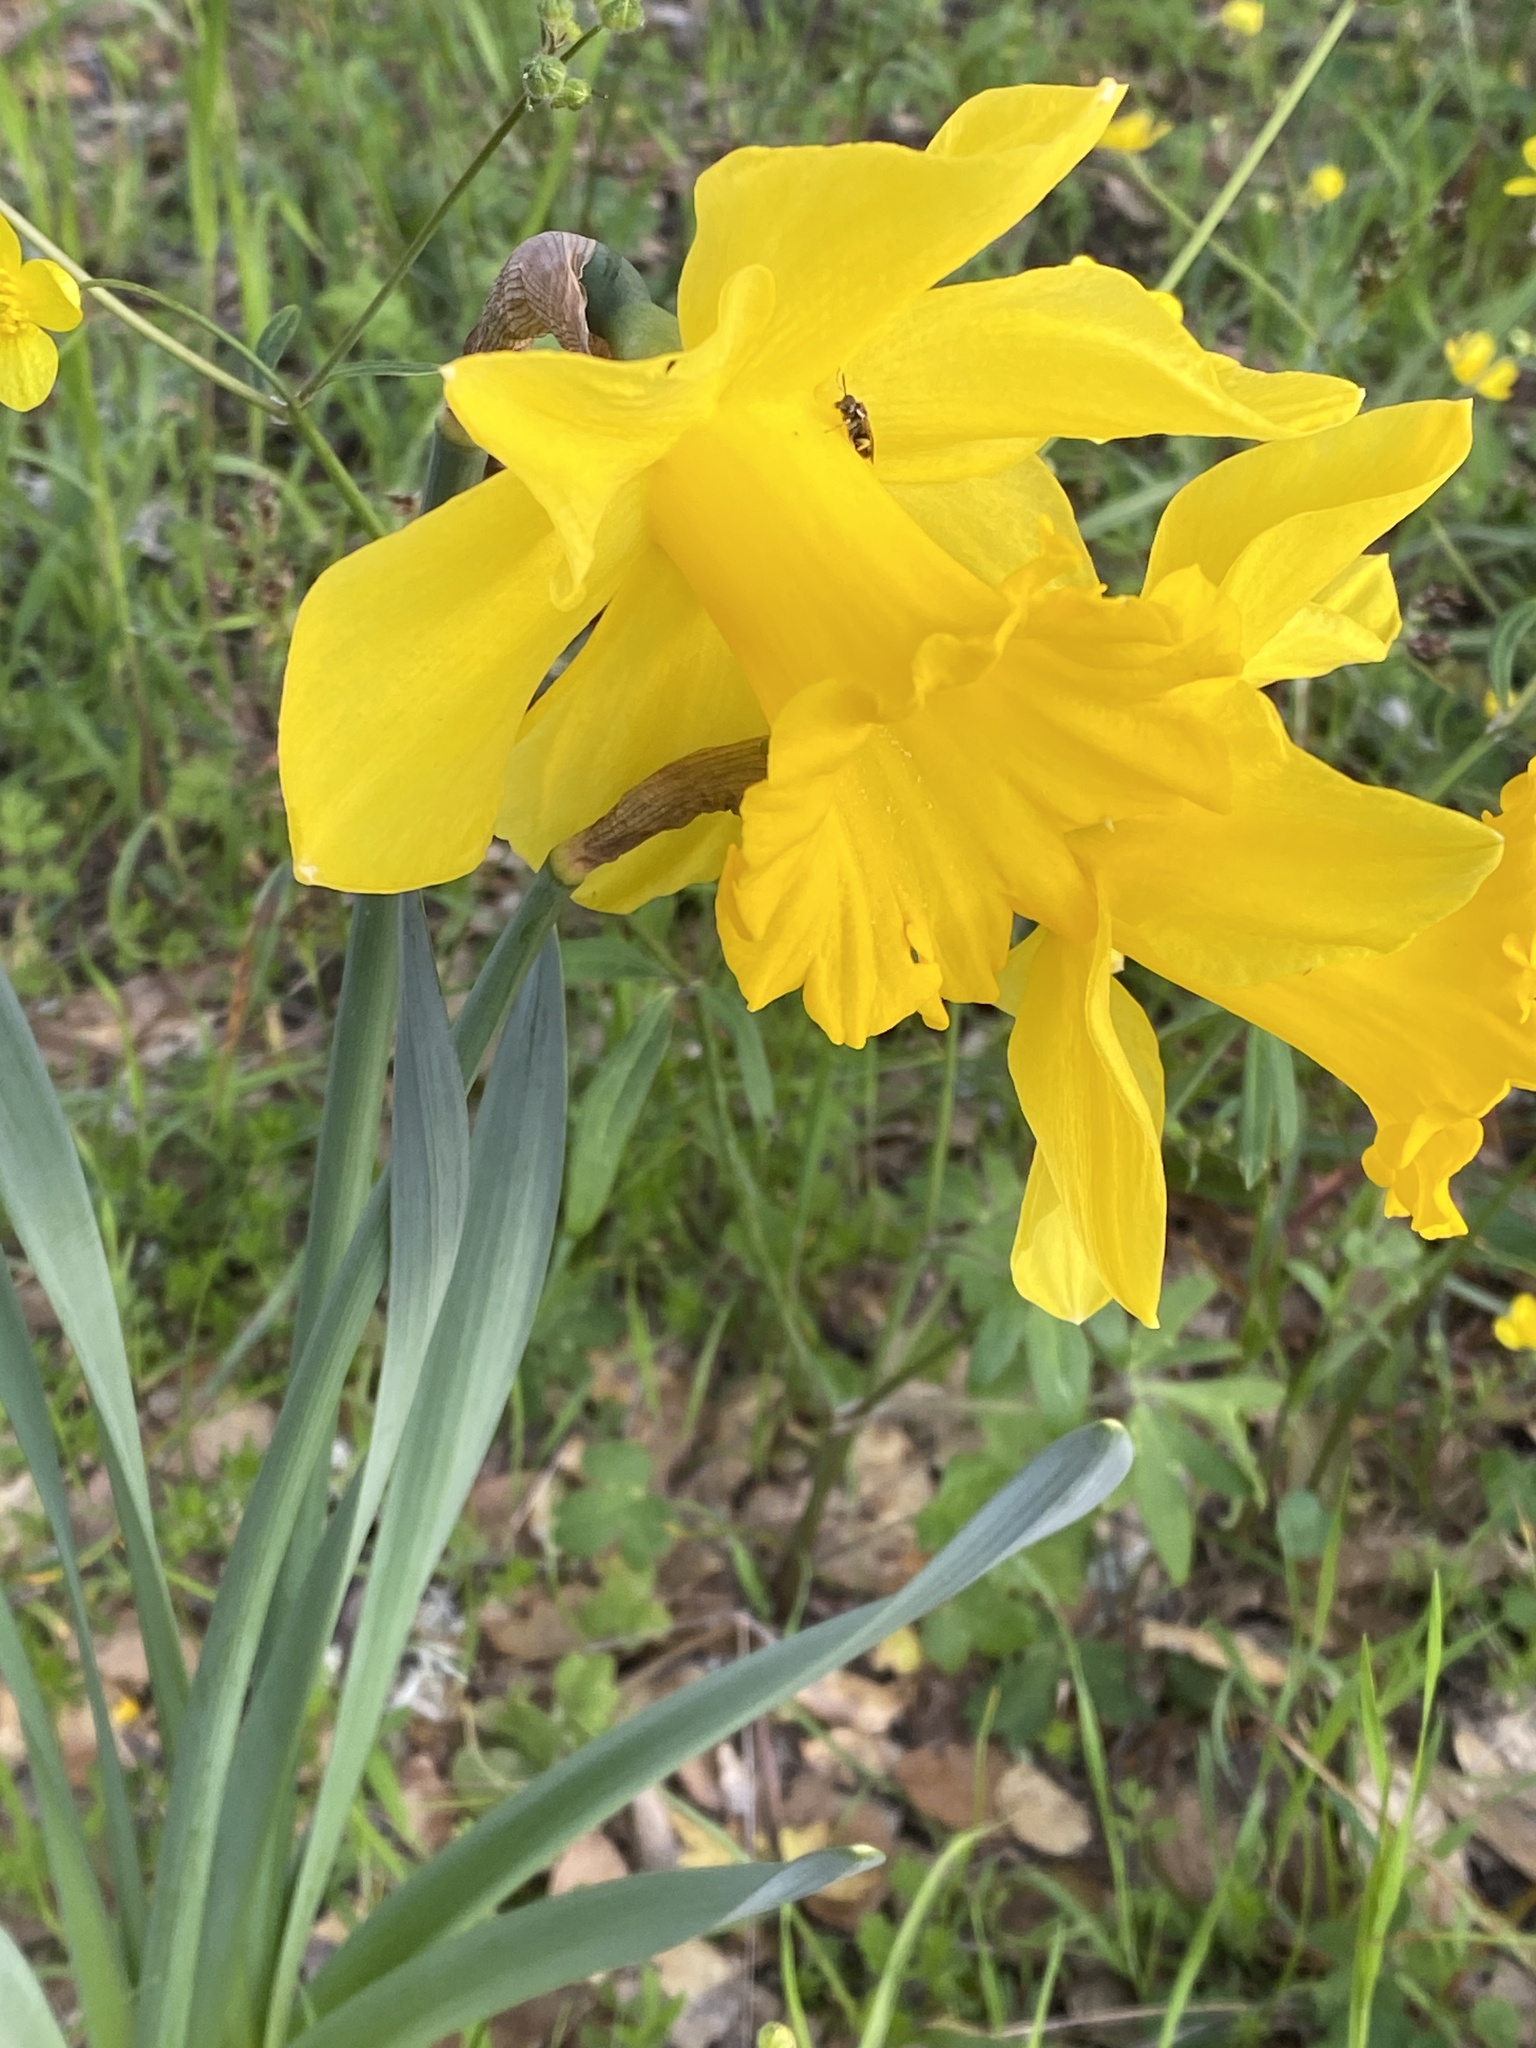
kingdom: Plantae
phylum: Tracheophyta
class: Liliopsida
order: Asparagales
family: Amaryllidaceae
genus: Narcissus
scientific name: Narcissus pseudonarcissus
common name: Daffodil
